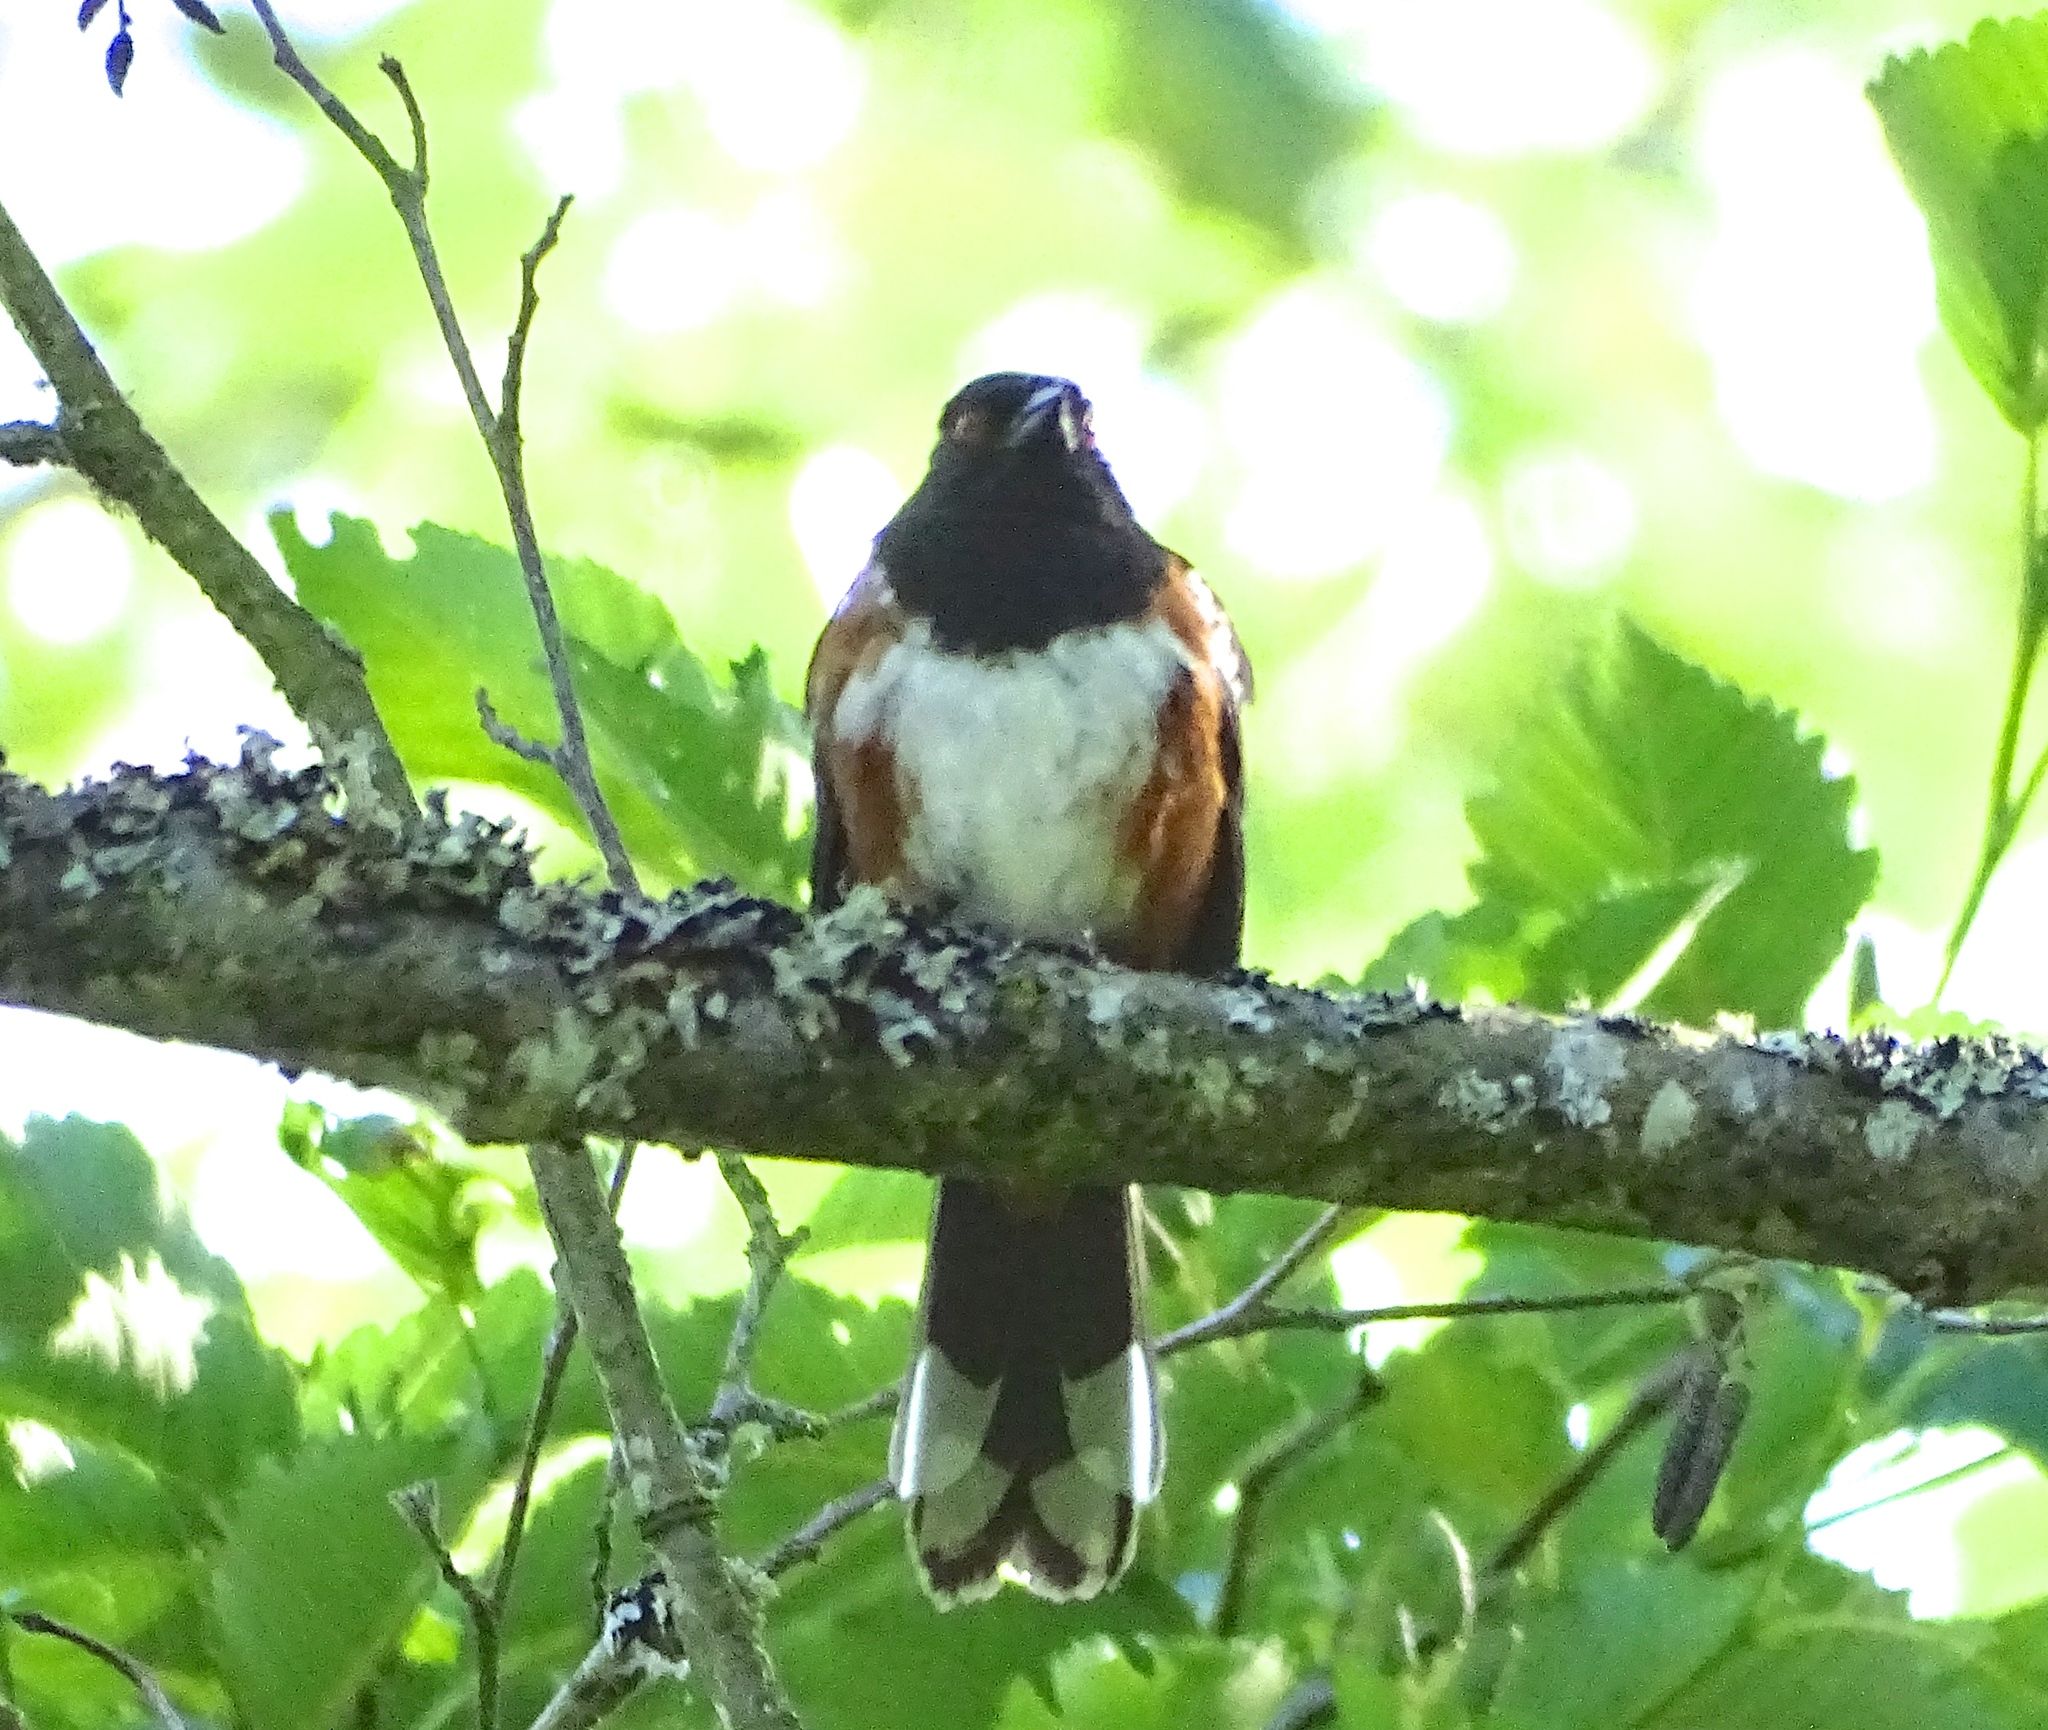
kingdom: Animalia
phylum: Chordata
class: Aves
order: Passeriformes
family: Passerellidae
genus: Pipilo
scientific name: Pipilo maculatus
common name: Spotted towhee
